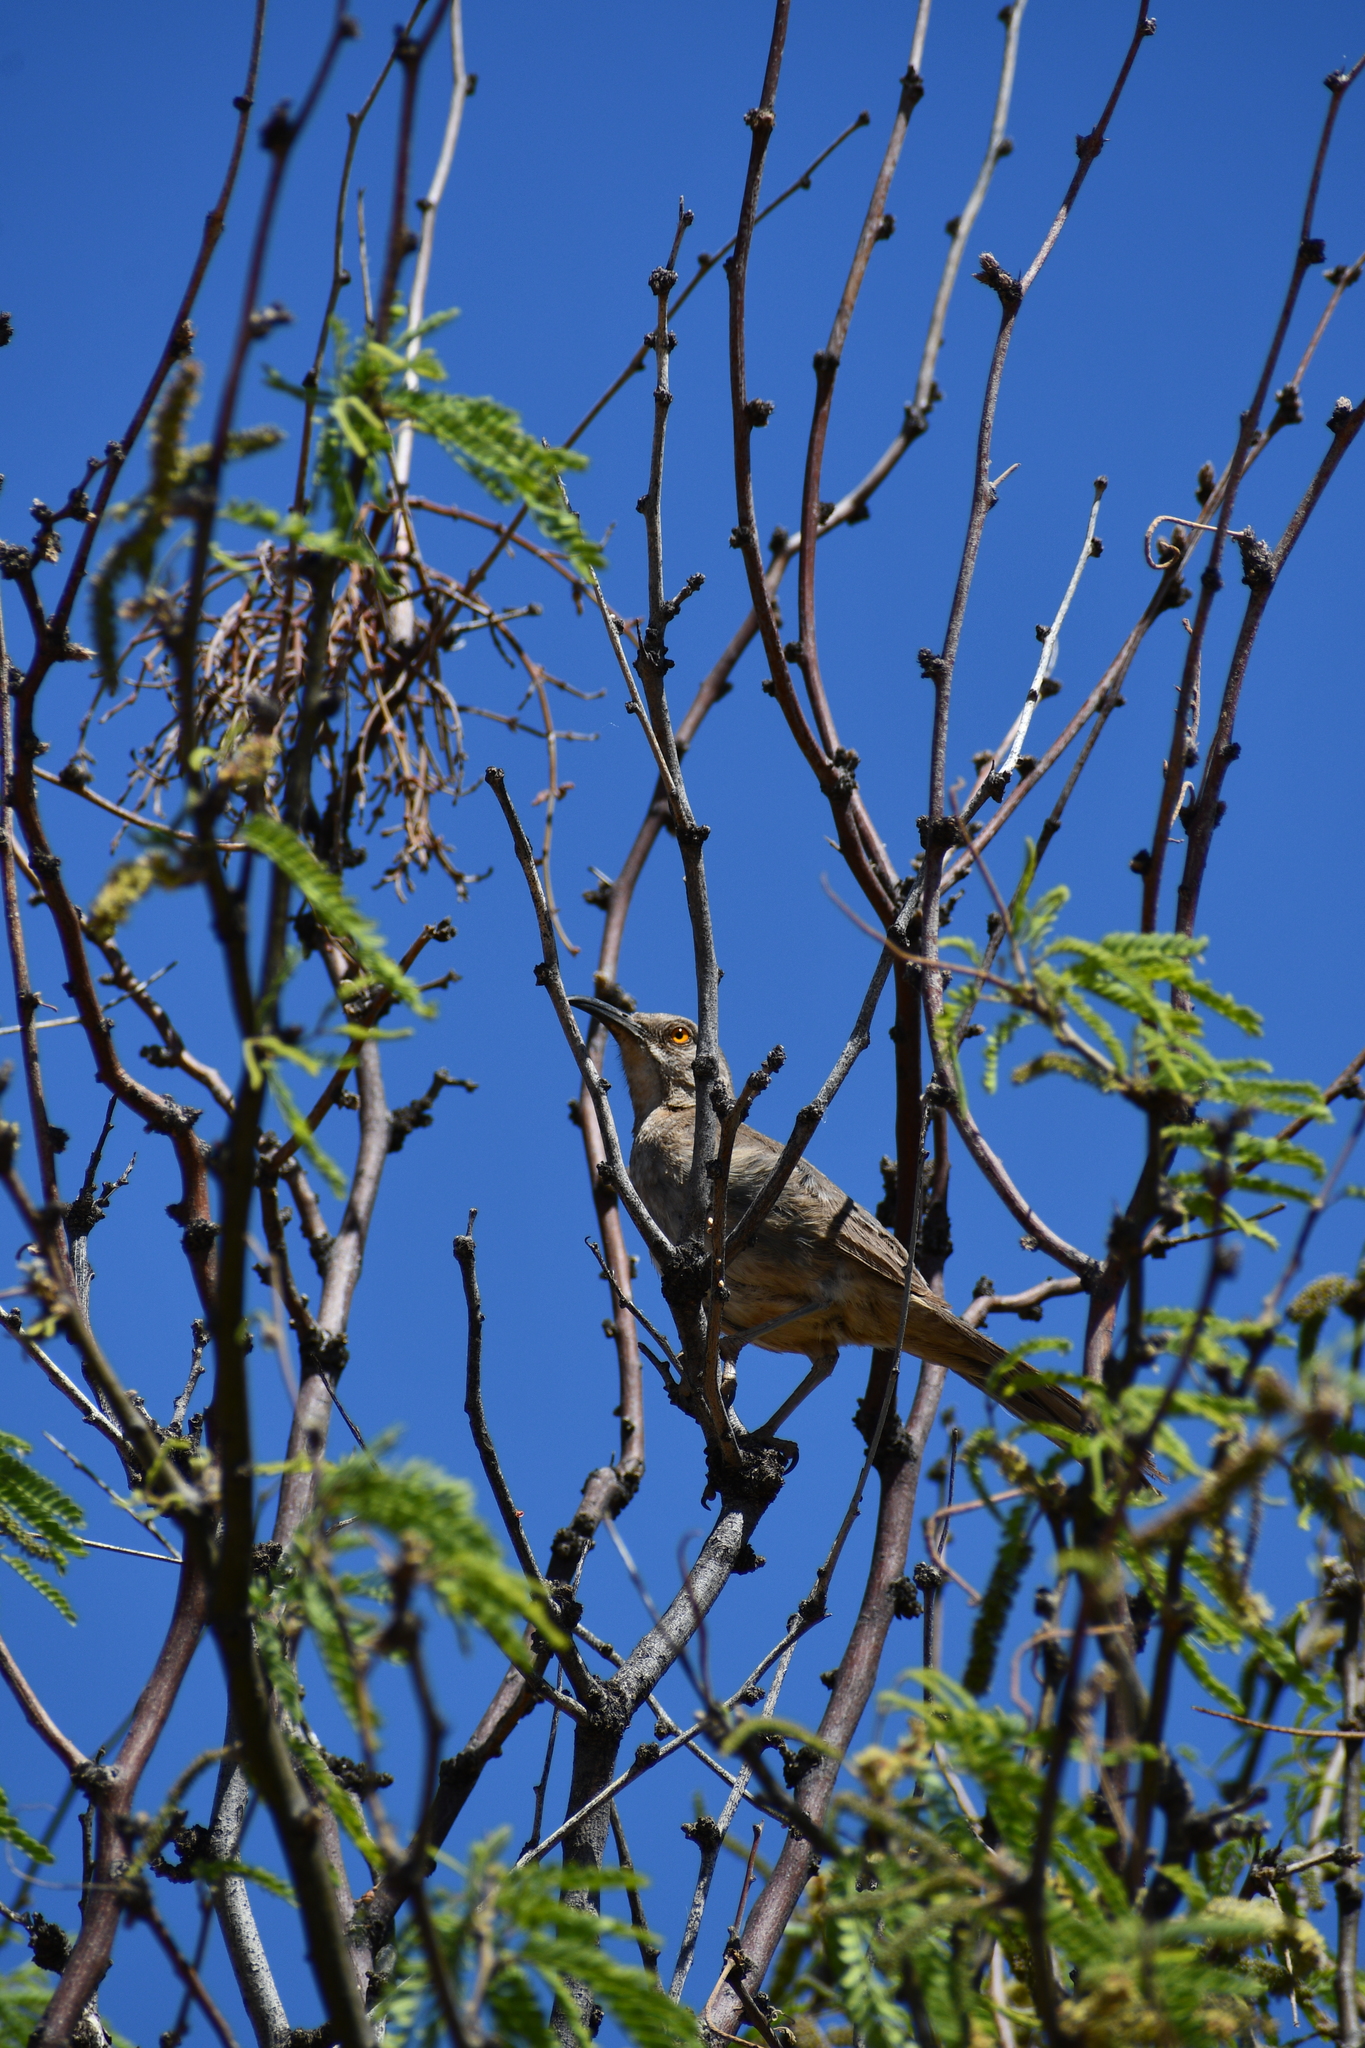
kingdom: Animalia
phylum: Chordata
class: Aves
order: Passeriformes
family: Mimidae
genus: Toxostoma
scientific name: Toxostoma curvirostre
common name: Curve-billed thrasher
